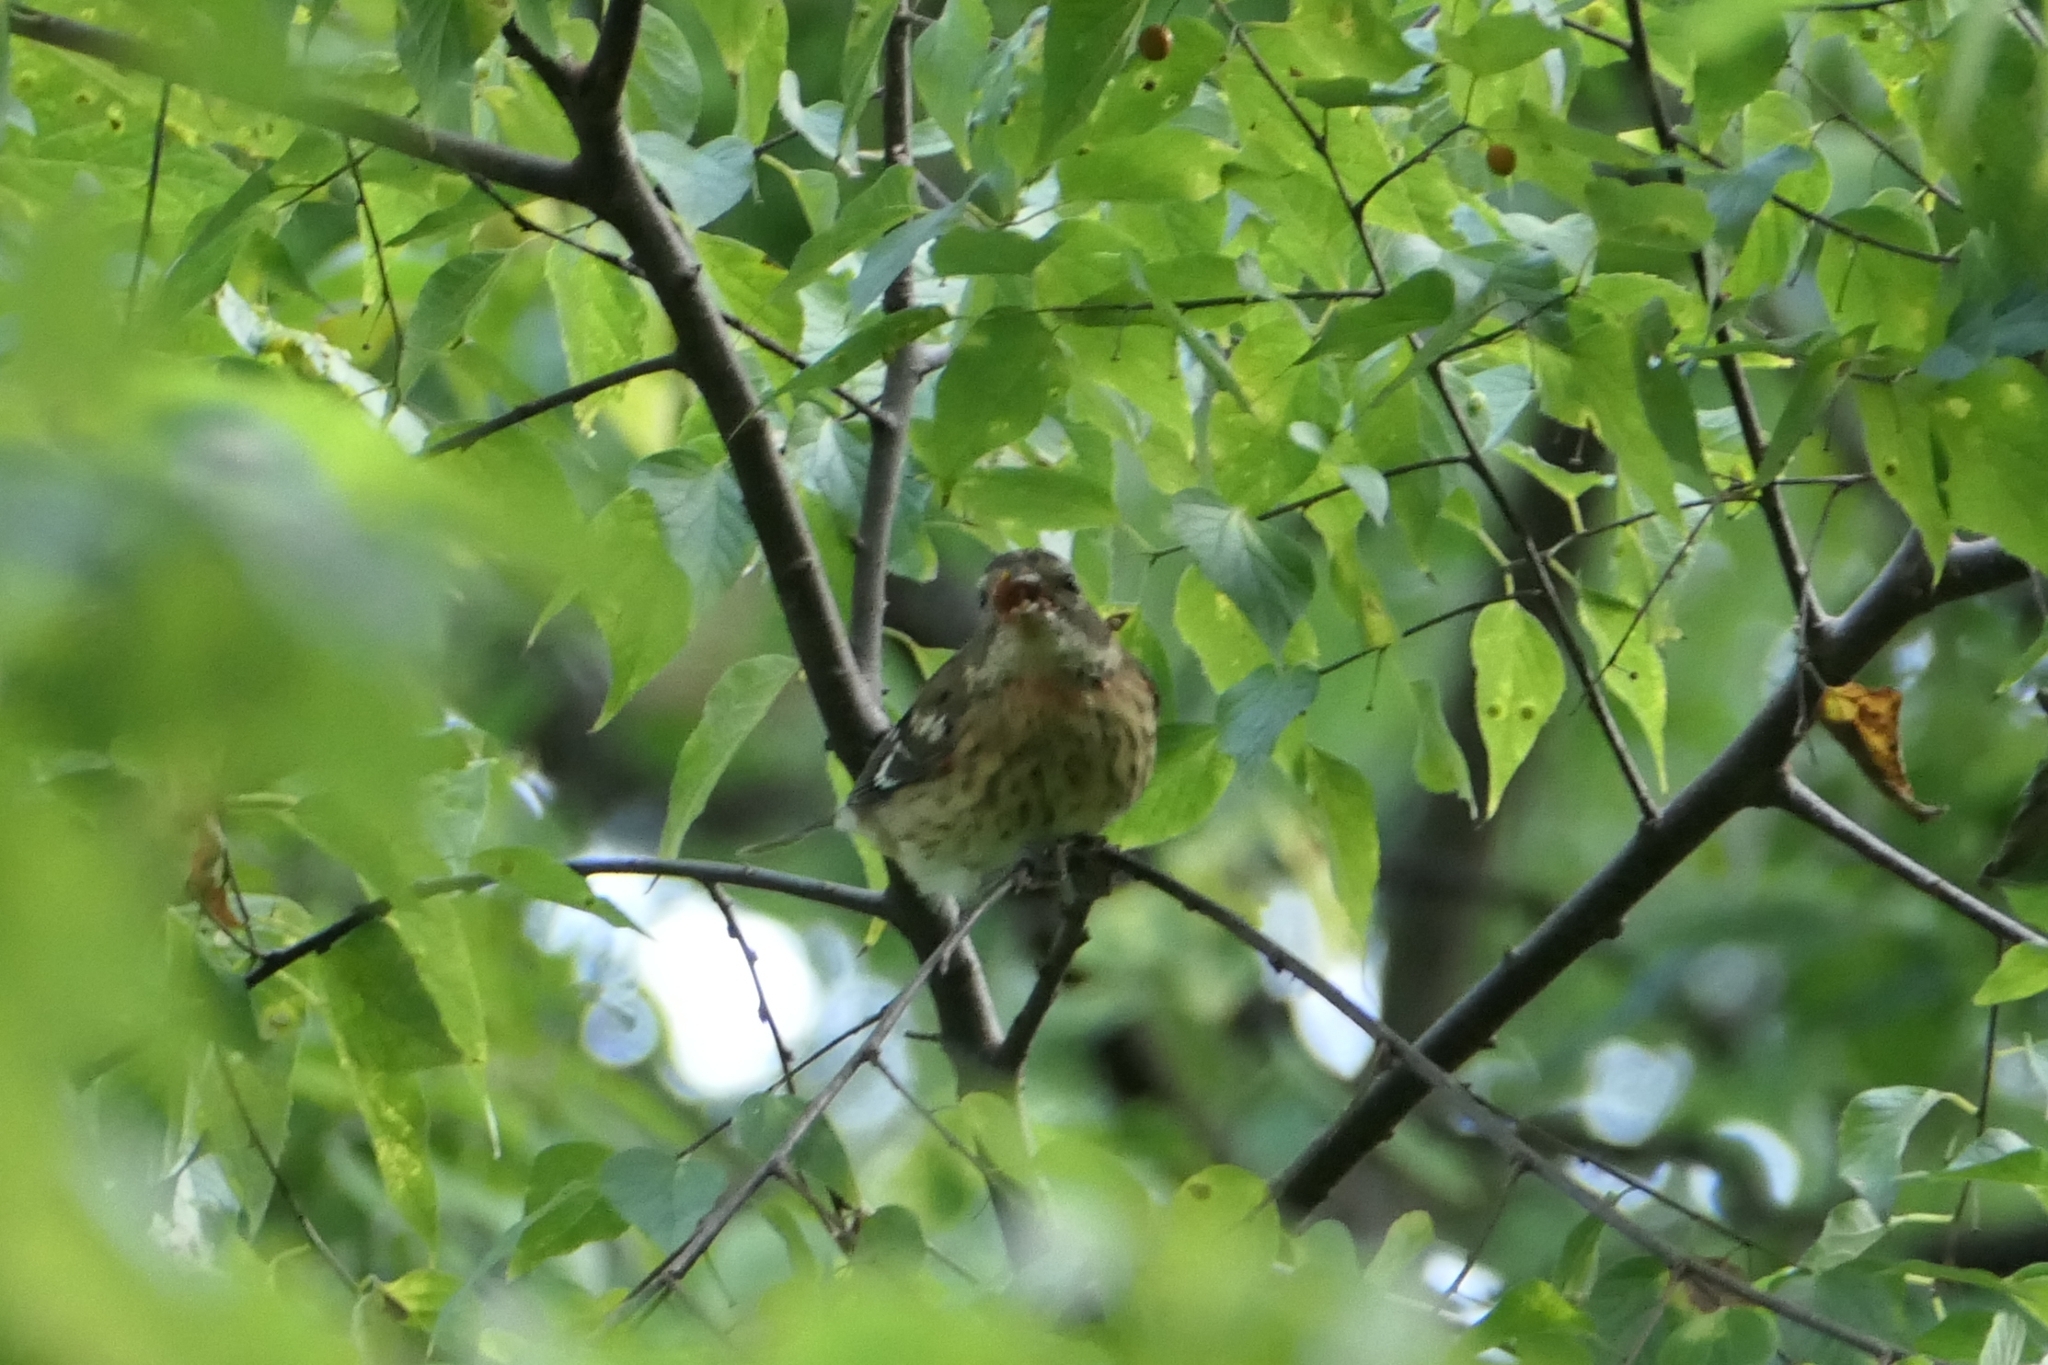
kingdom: Animalia
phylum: Chordata
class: Aves
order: Passeriformes
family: Cardinalidae
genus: Pheucticus
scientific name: Pheucticus ludovicianus
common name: Rose-breasted grosbeak
